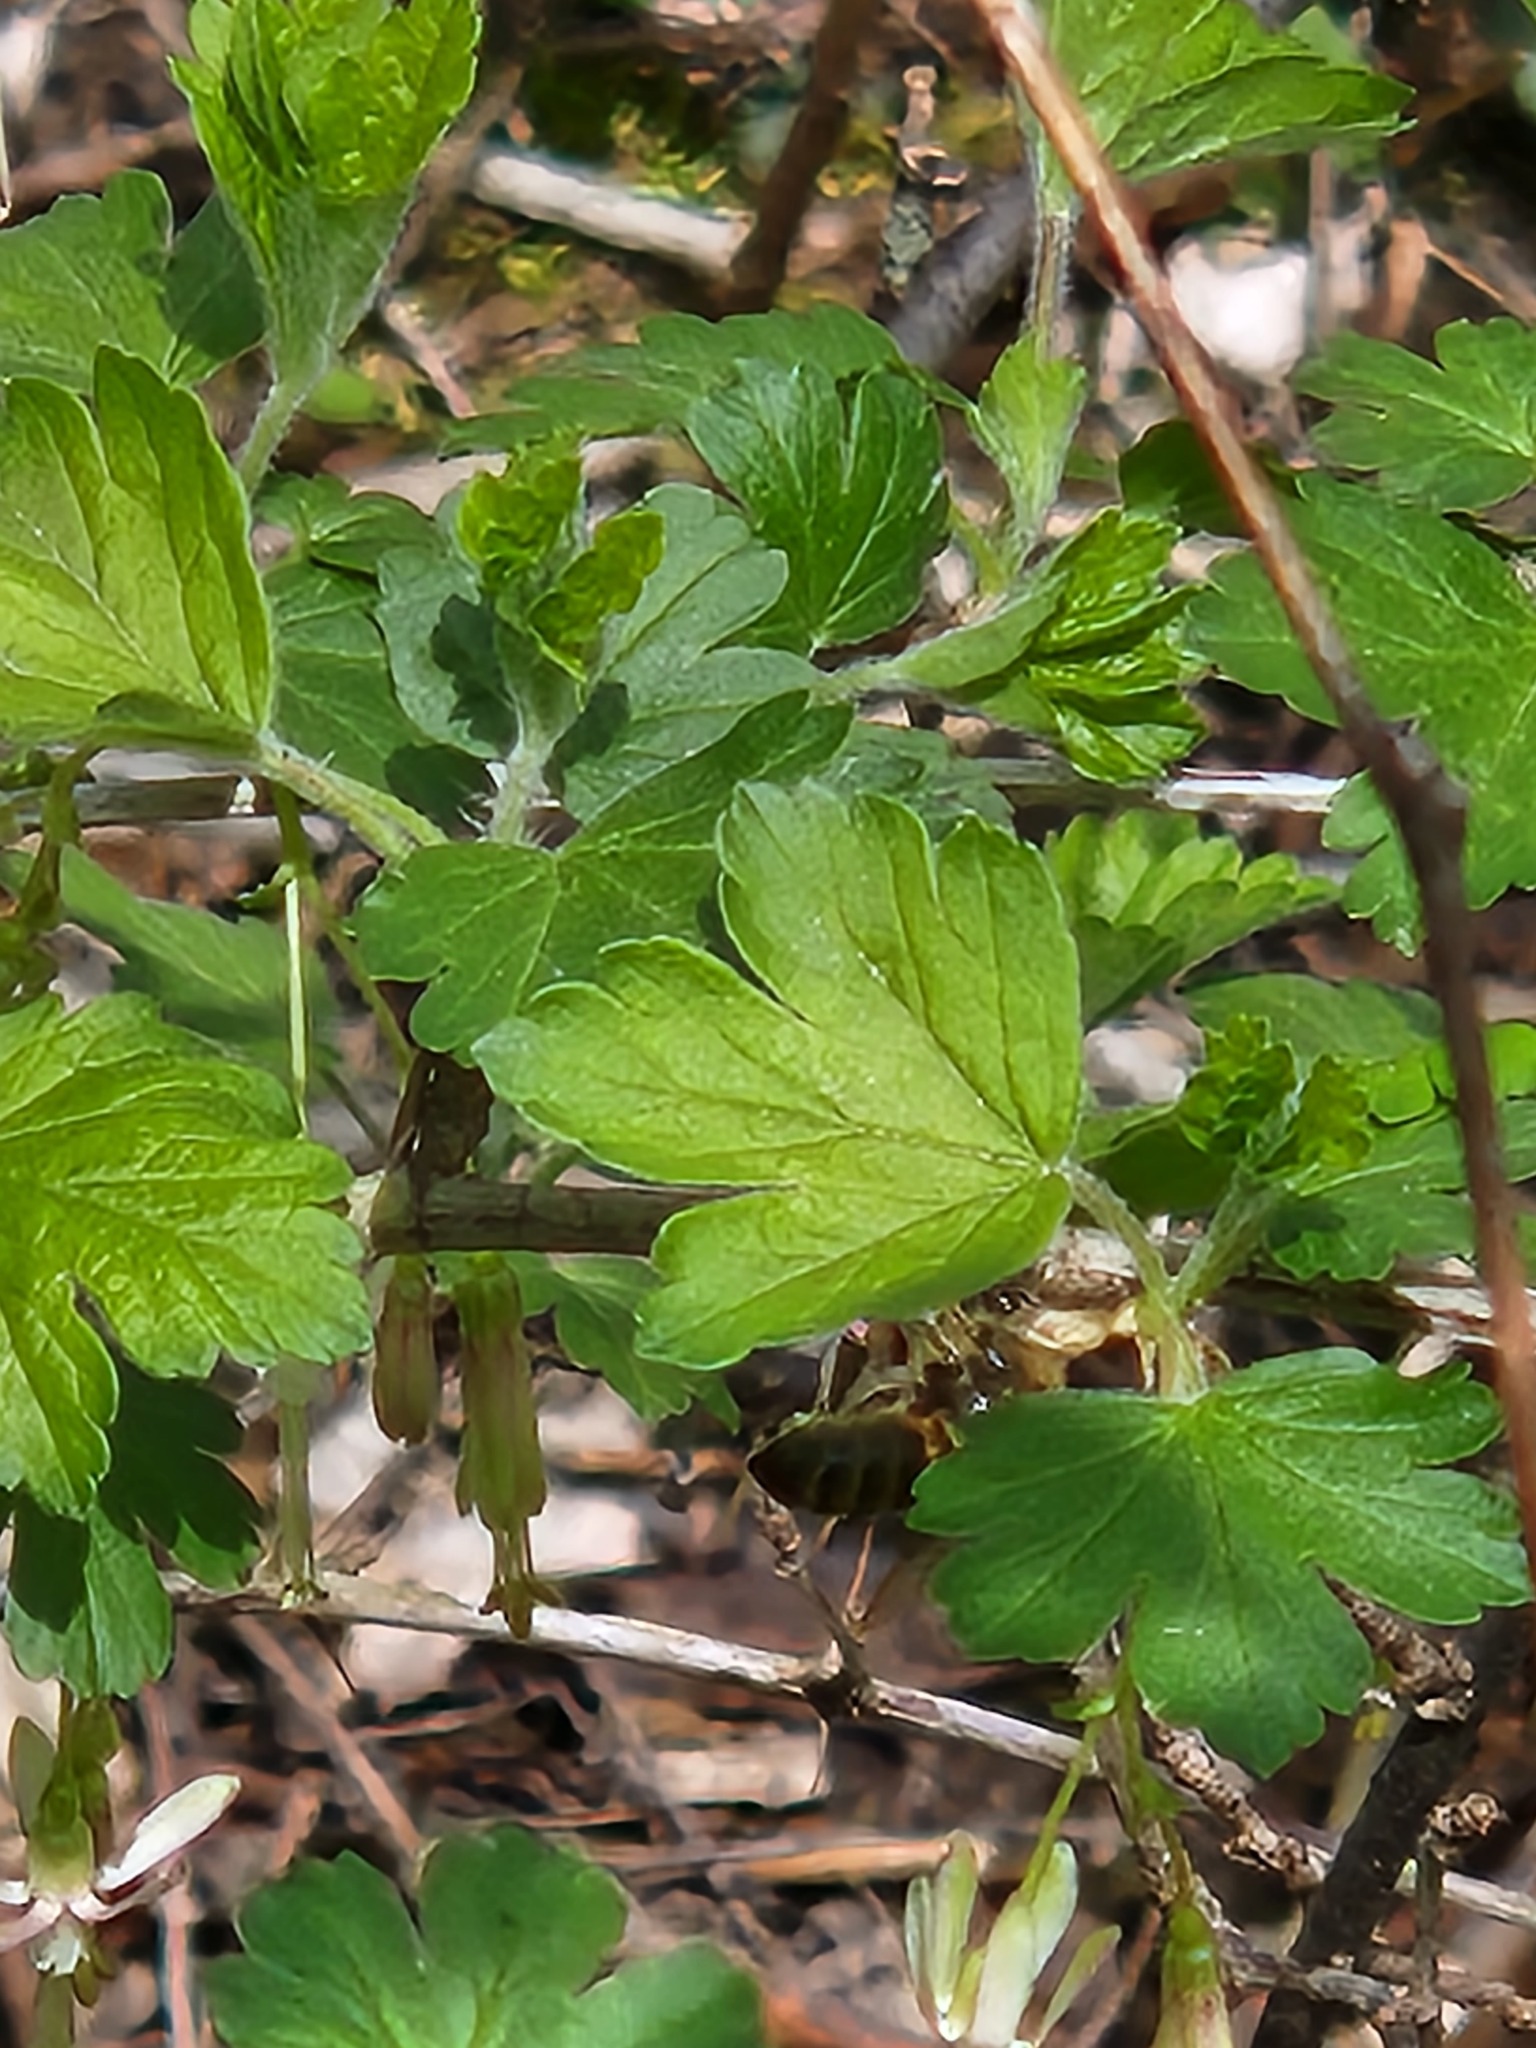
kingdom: Animalia
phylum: Arthropoda
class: Insecta
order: Hymenoptera
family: Apidae
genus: Apis
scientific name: Apis mellifera
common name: Honey bee
